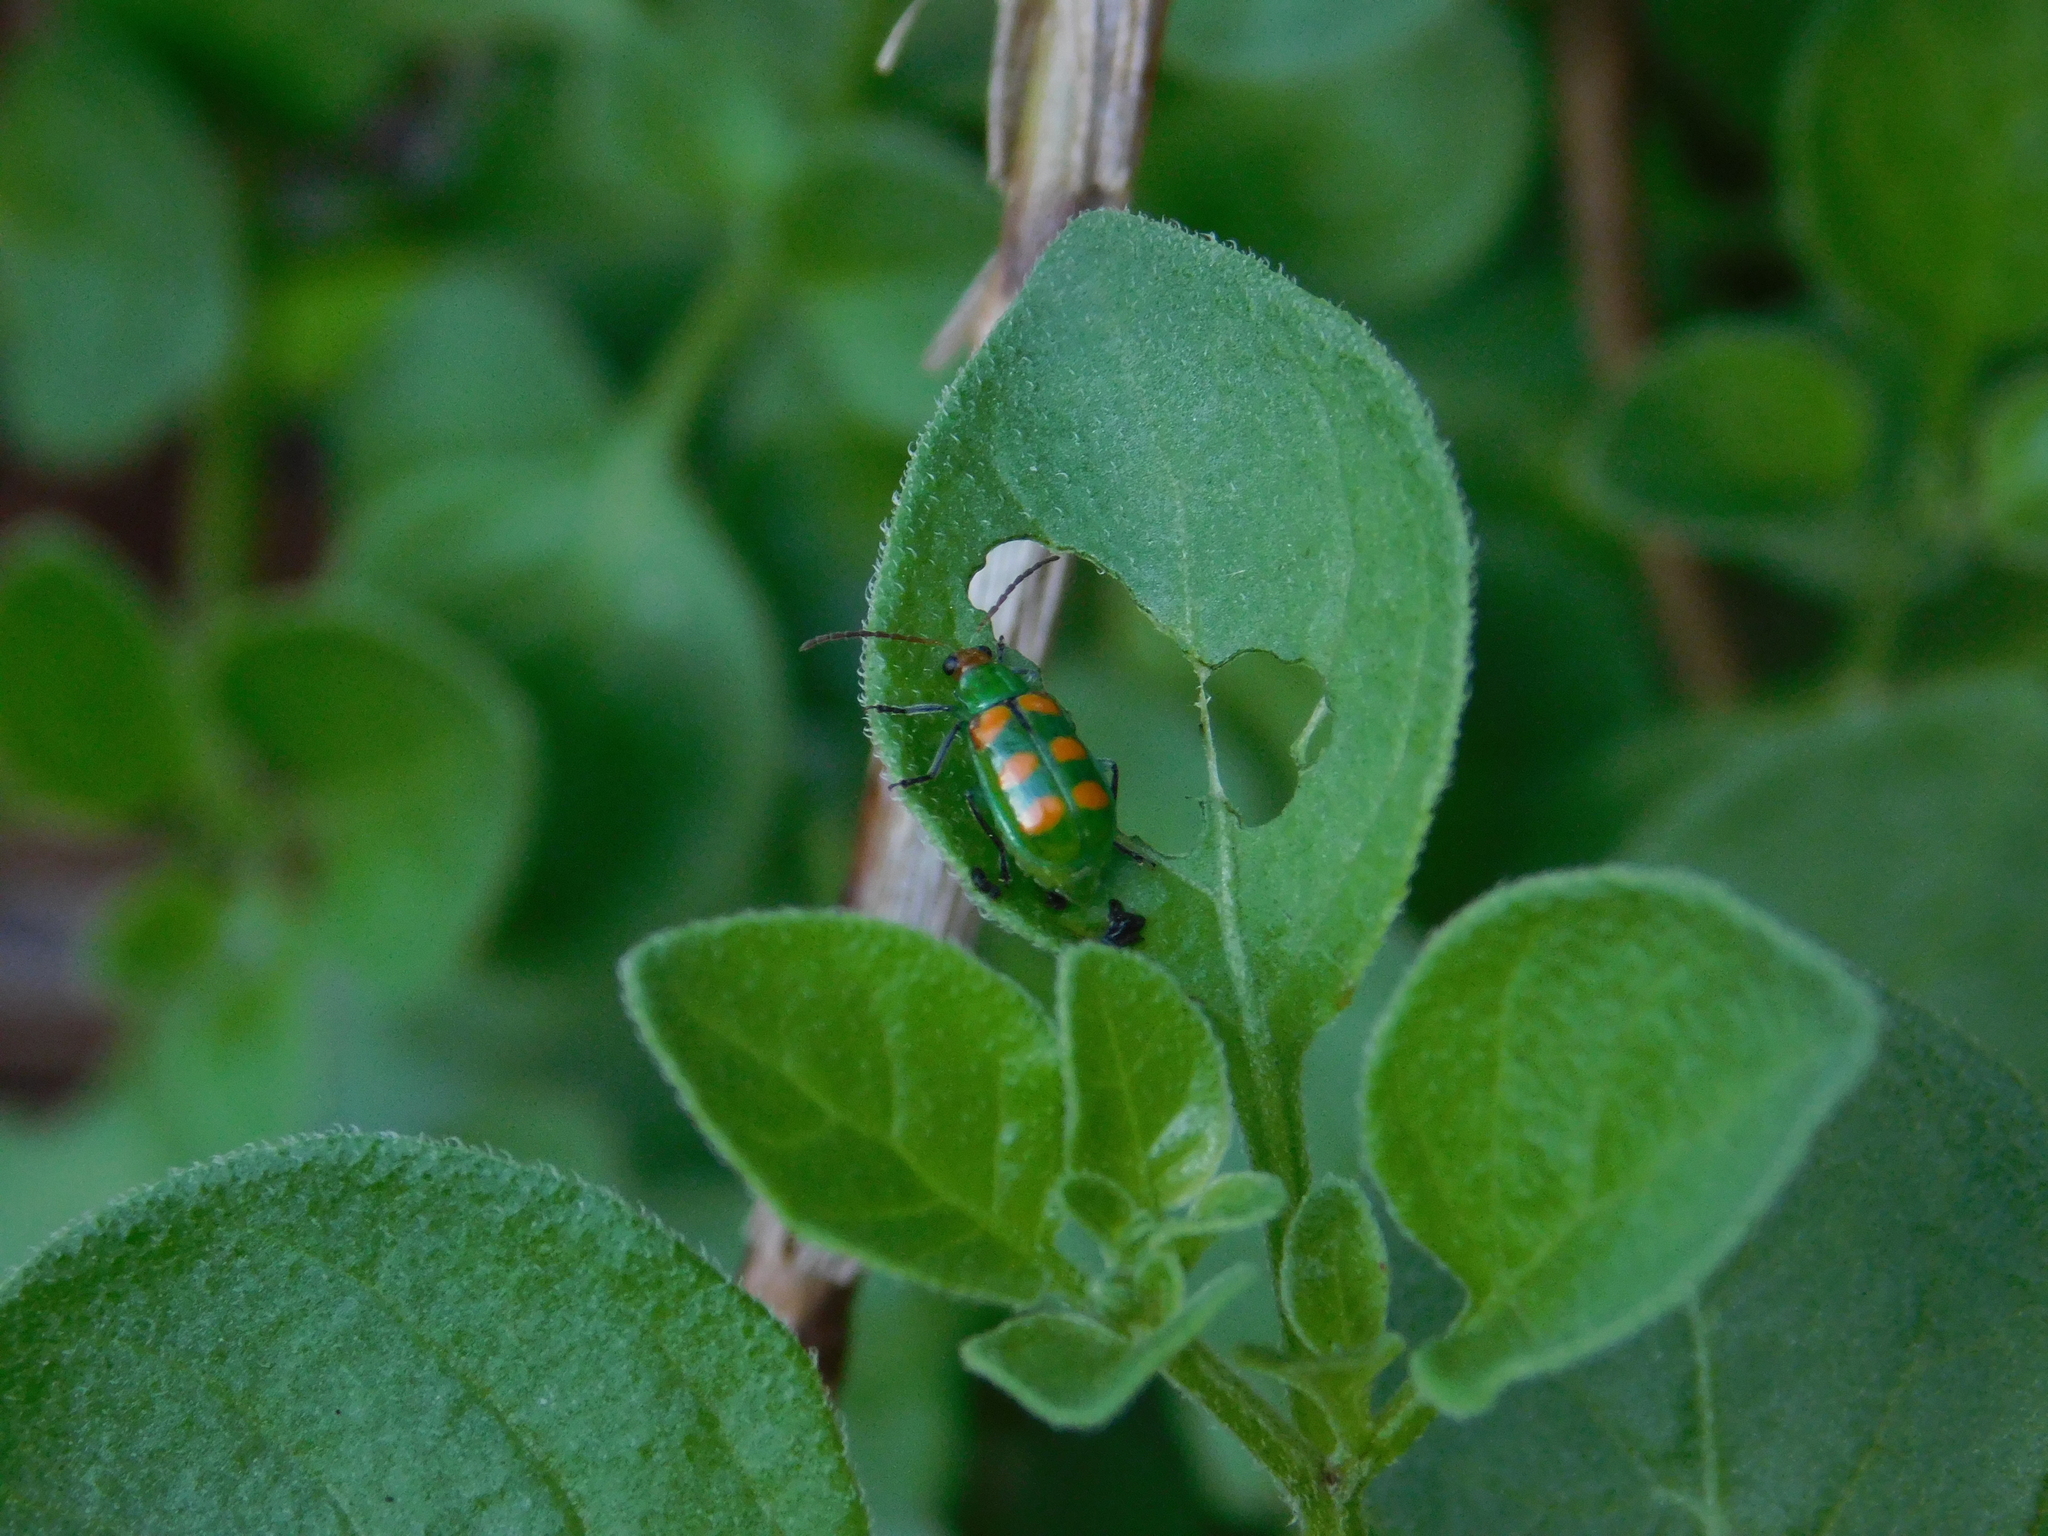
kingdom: Animalia
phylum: Arthropoda
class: Insecta
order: Coleoptera
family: Chrysomelidae
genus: Diabrotica
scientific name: Diabrotica speciosa
